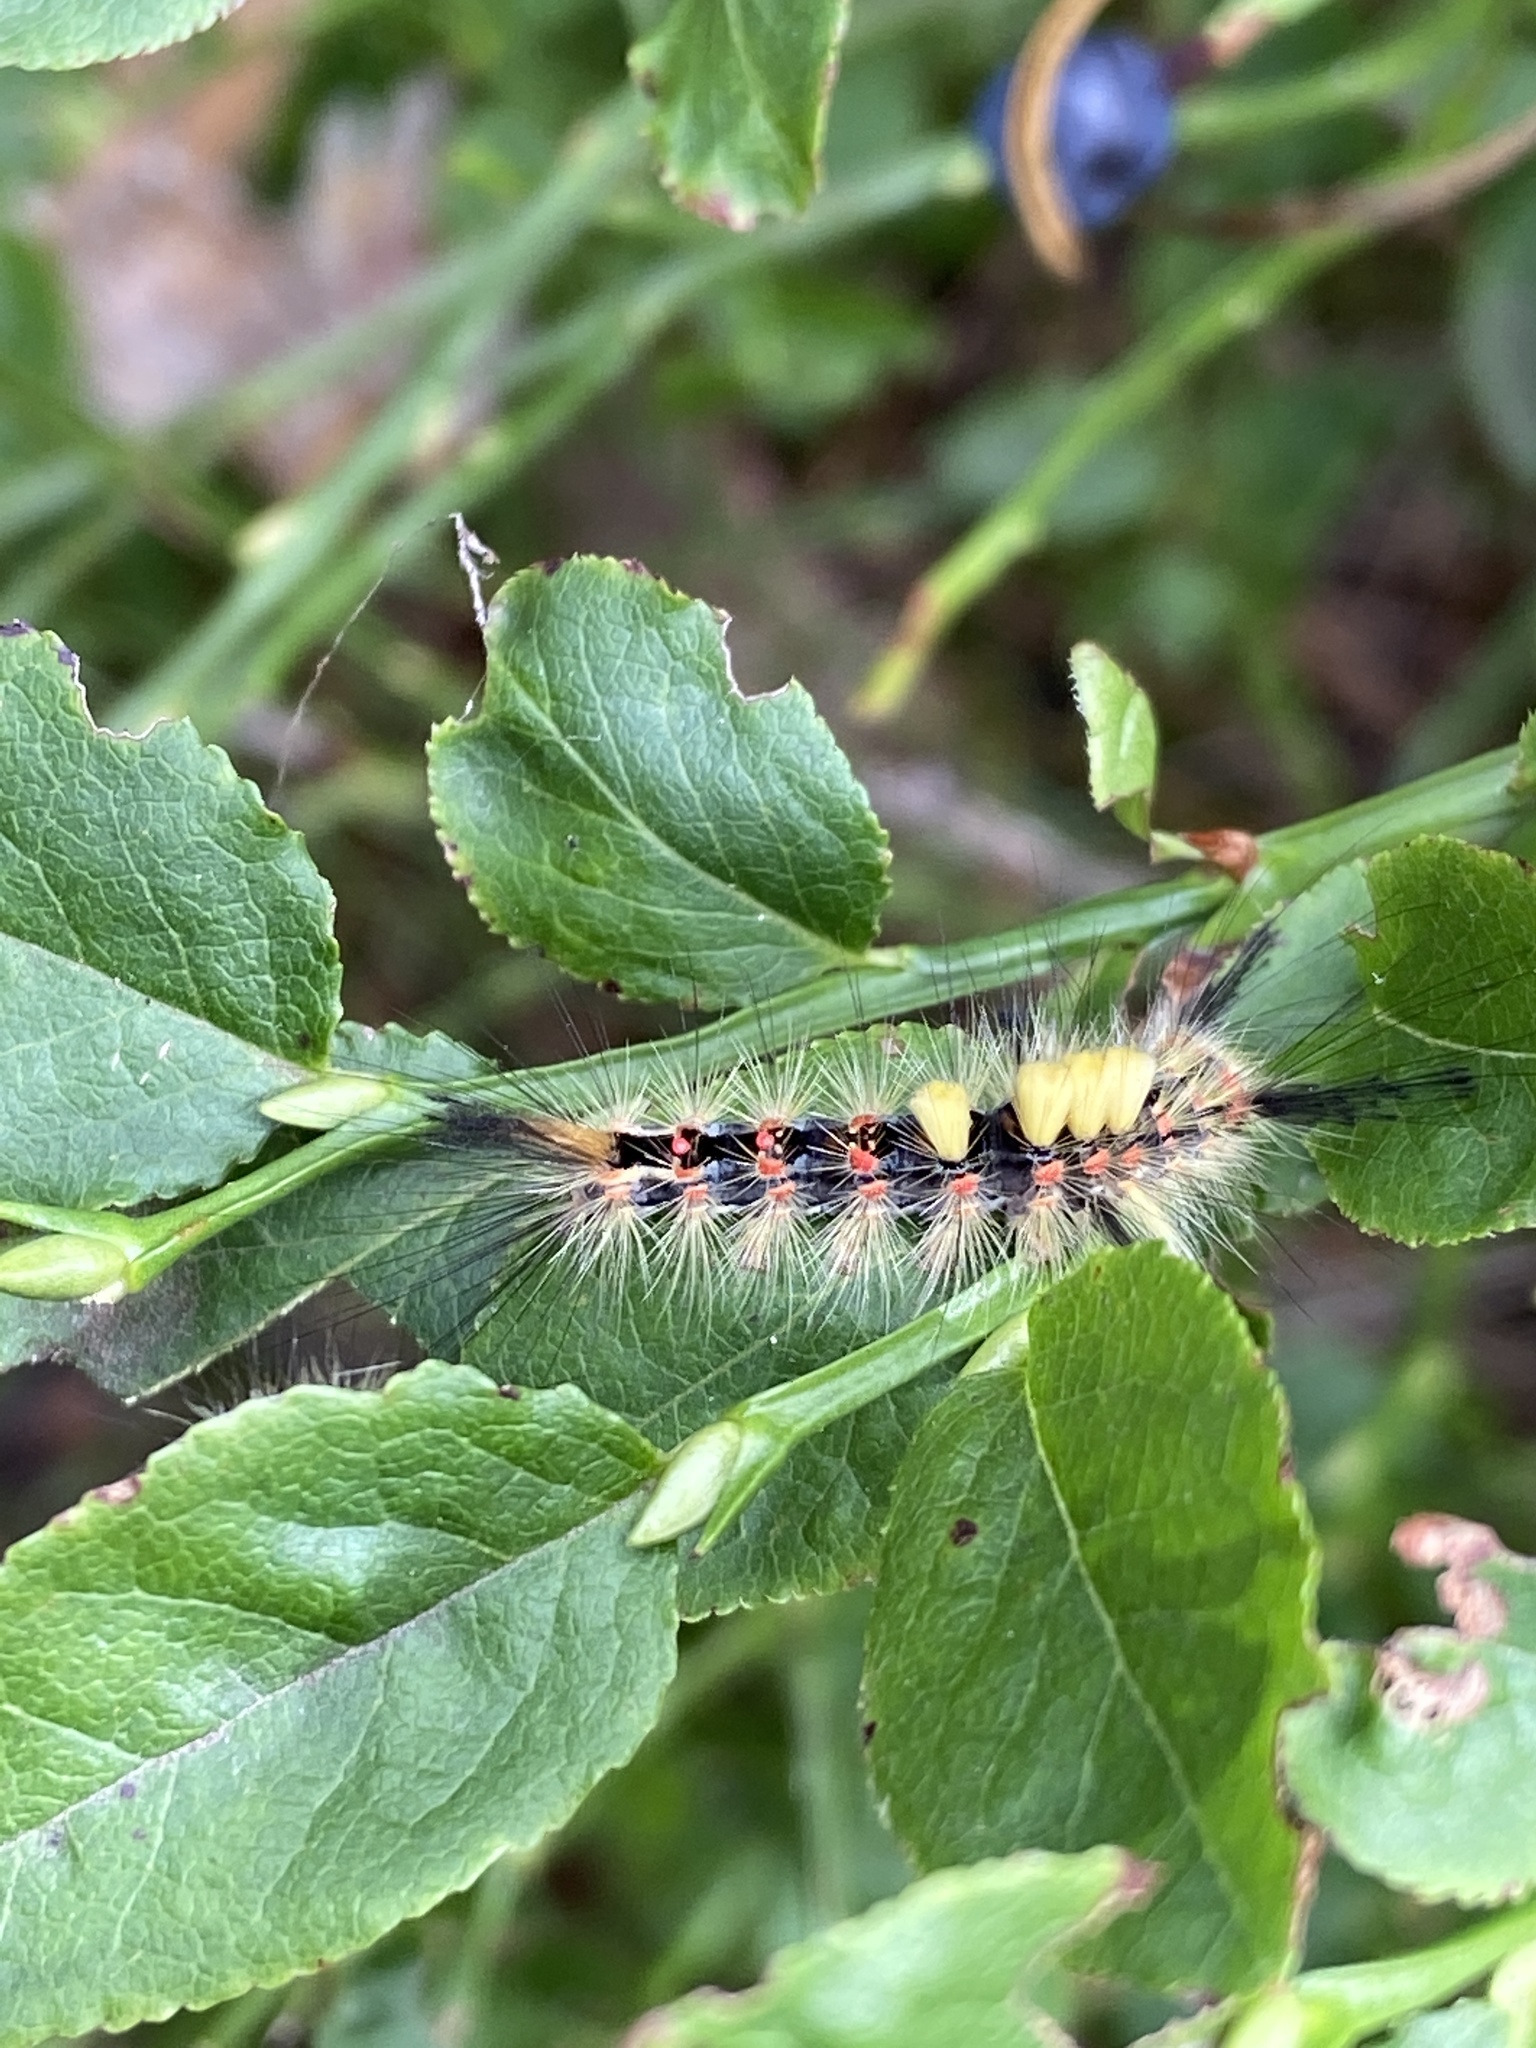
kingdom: Animalia
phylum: Arthropoda
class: Insecta
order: Lepidoptera
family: Erebidae
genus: Orgyia
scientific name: Orgyia antiqua
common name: Vapourer
